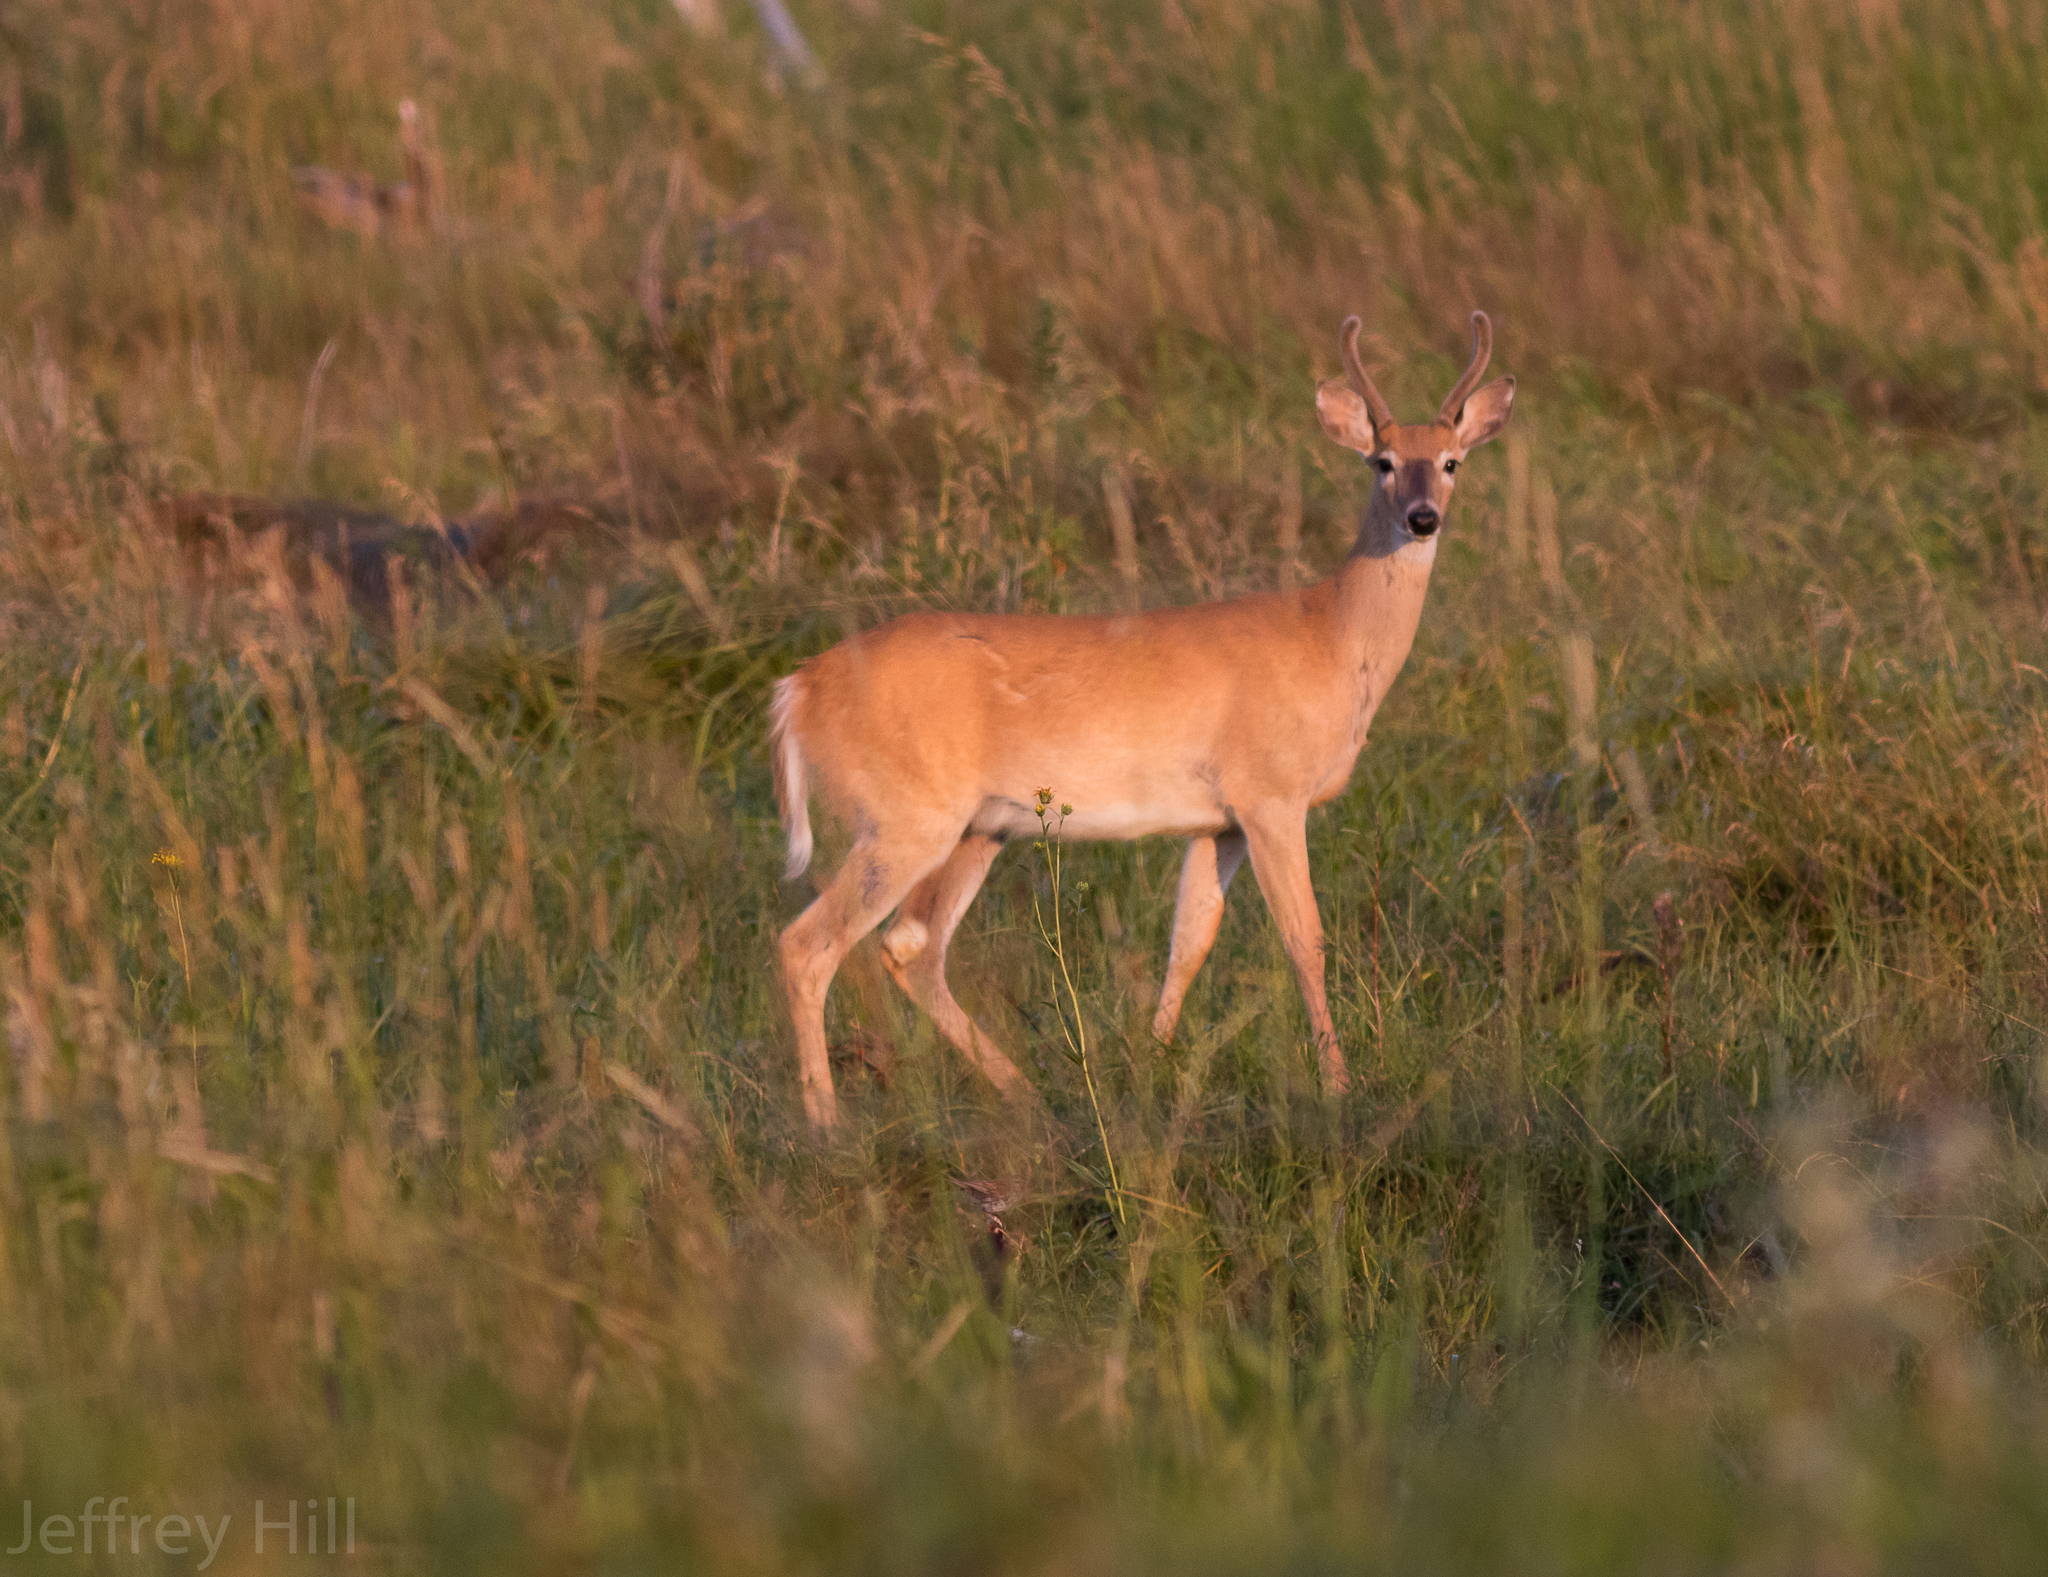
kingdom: Animalia
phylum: Chordata
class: Mammalia
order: Artiodactyla
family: Cervidae
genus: Odocoileus
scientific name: Odocoileus virginianus
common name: White-tailed deer
